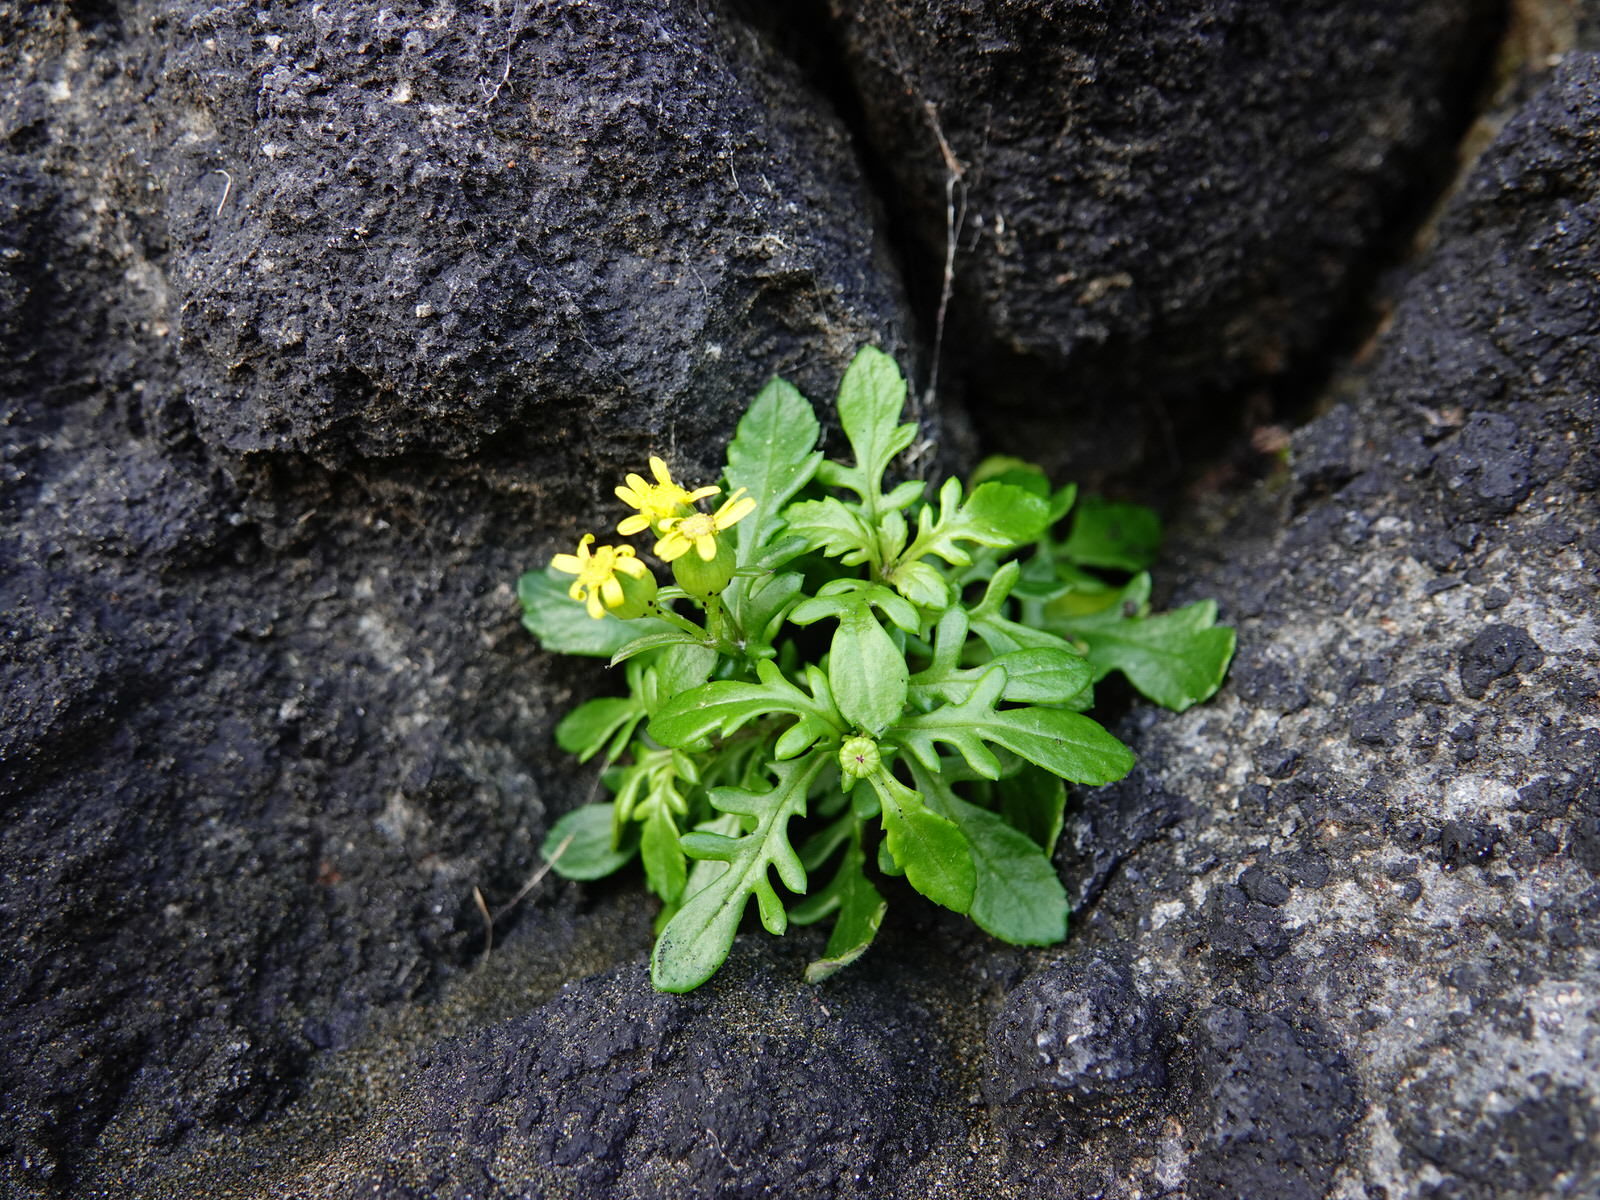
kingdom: Plantae
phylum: Tracheophyta
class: Magnoliopsida
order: Asterales
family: Asteraceae
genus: Senecio
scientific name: Senecio lautus
